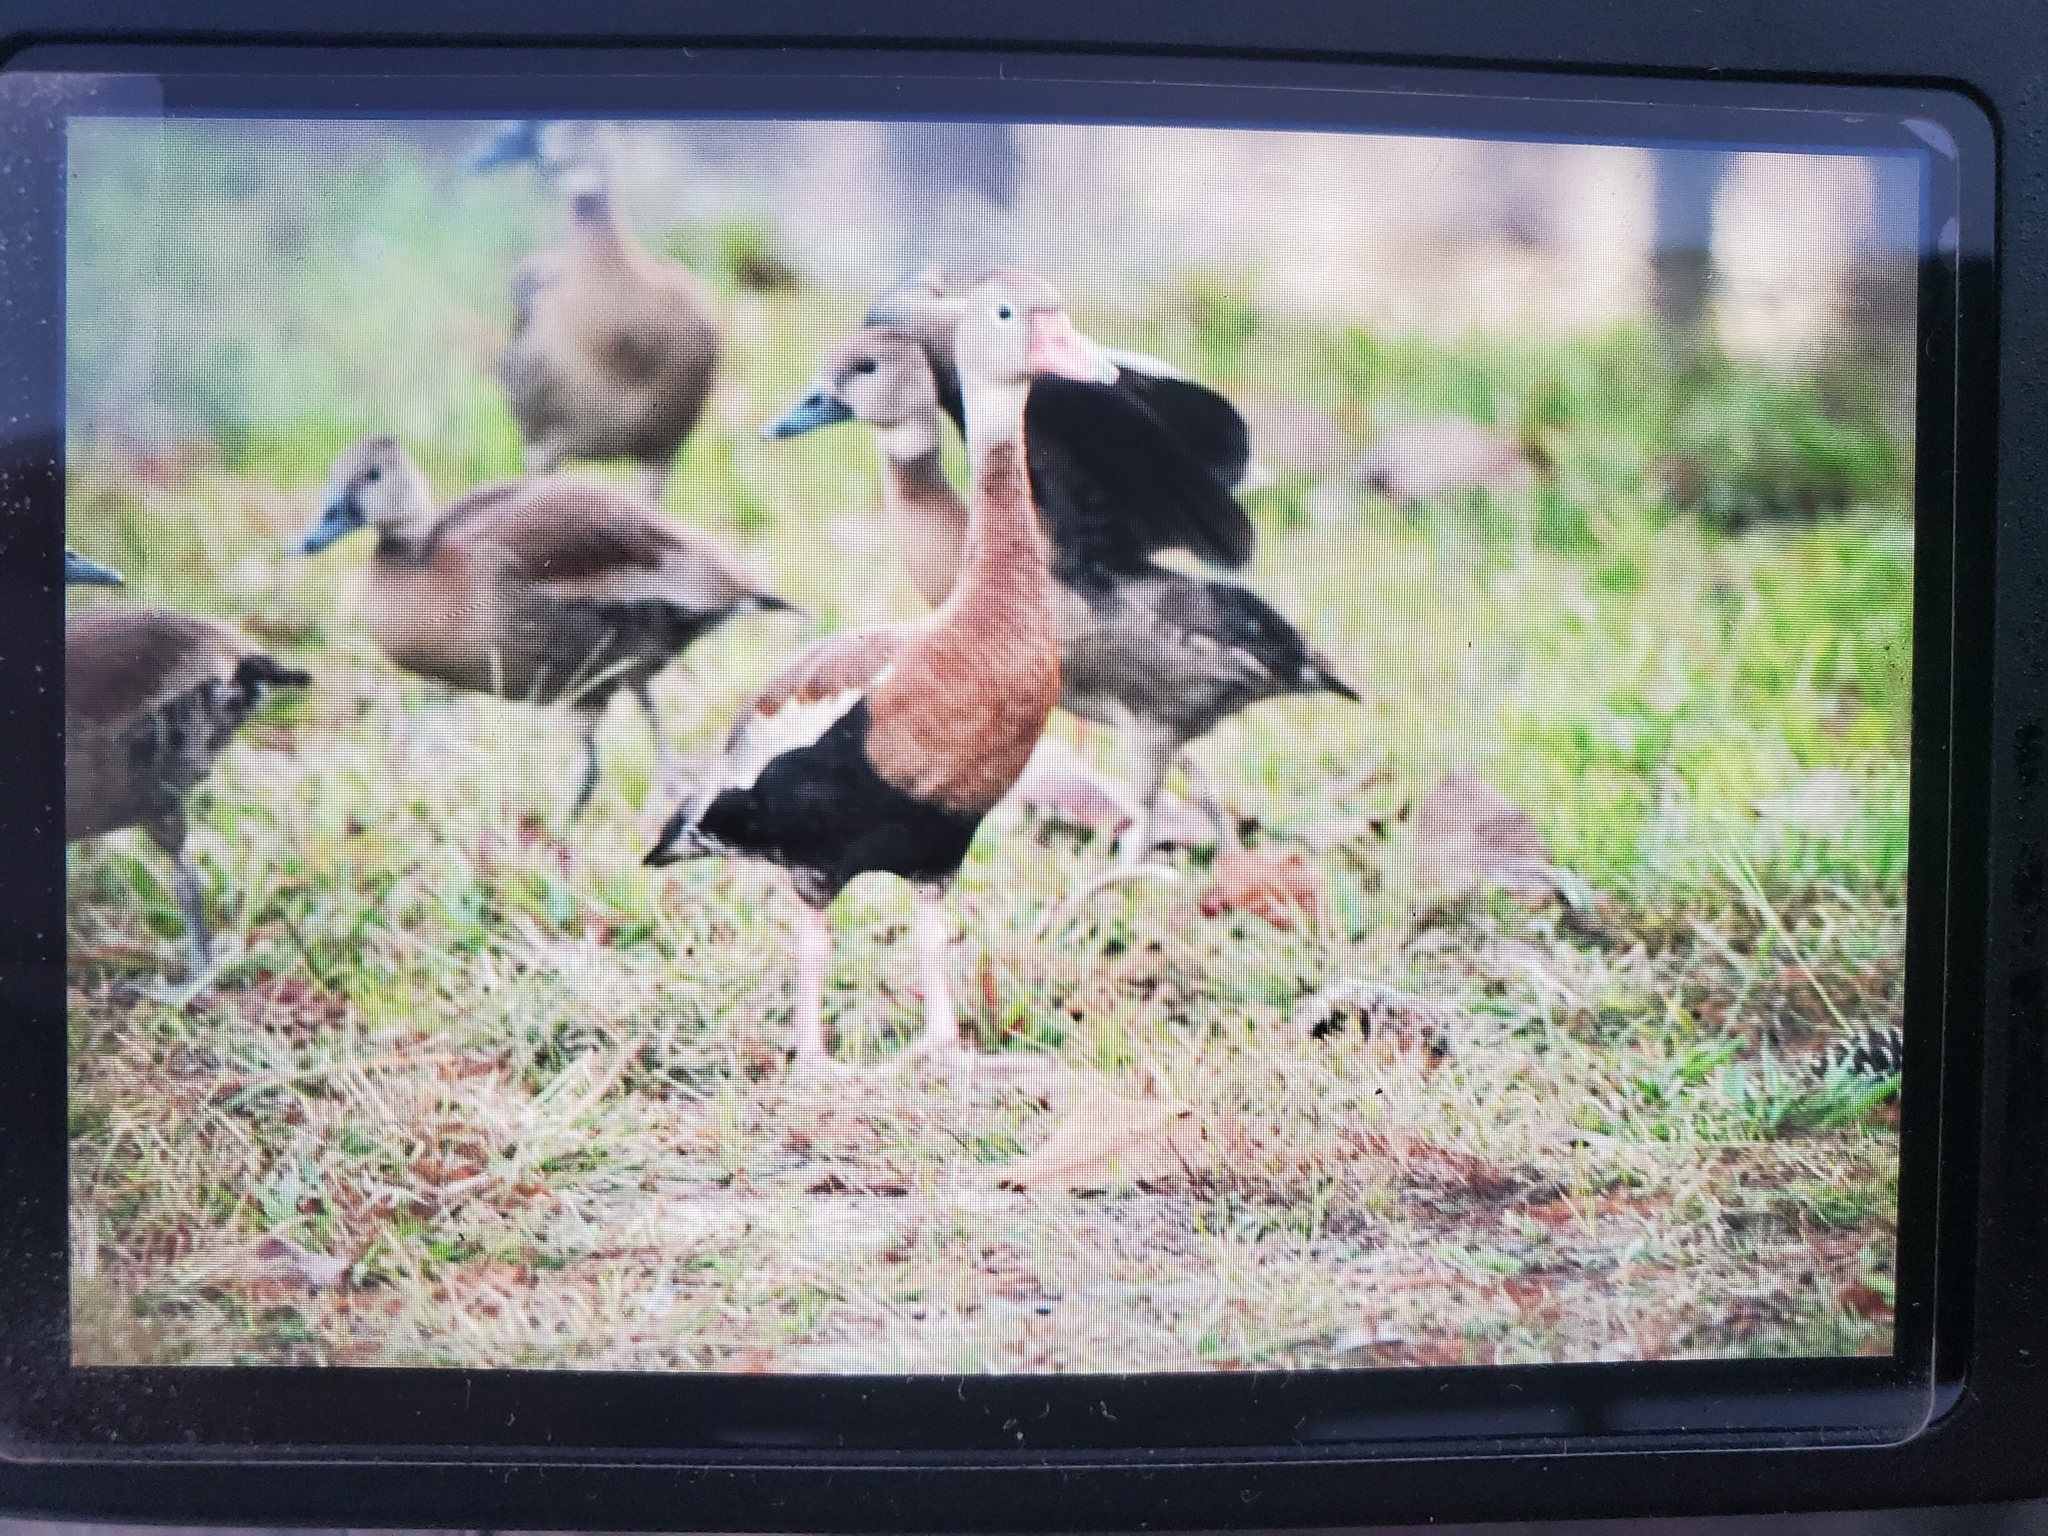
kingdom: Animalia
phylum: Chordata
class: Aves
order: Anseriformes
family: Anatidae
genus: Dendrocygna
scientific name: Dendrocygna autumnalis
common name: Black-bellied whistling duck
